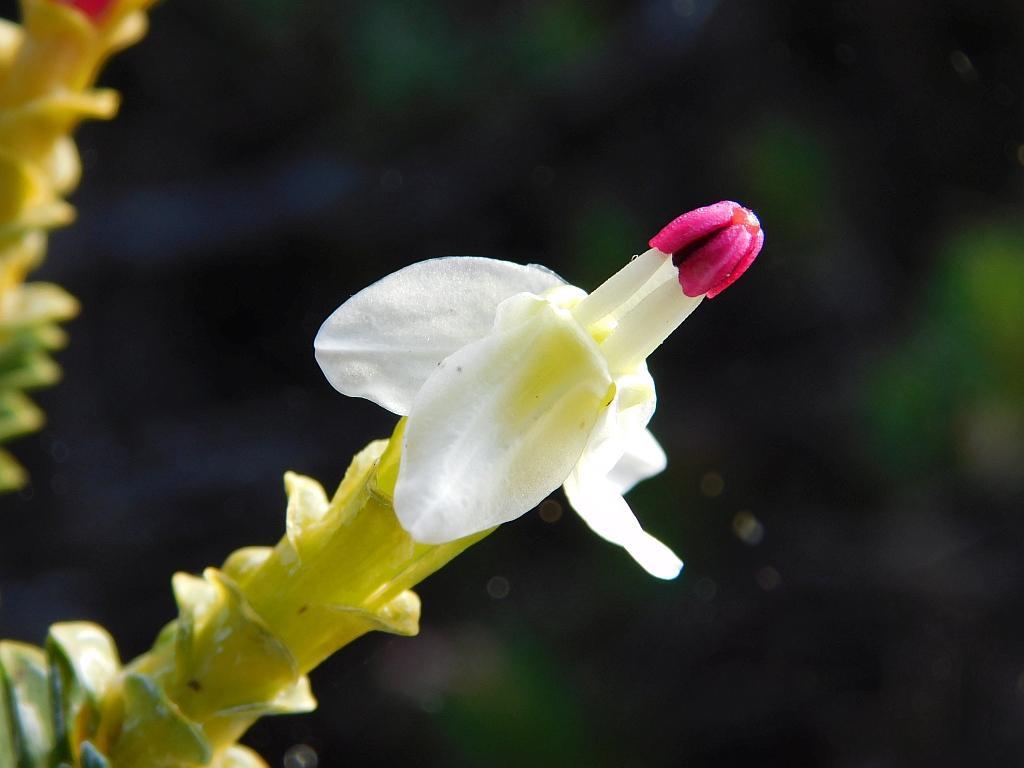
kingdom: Plantae
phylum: Tracheophyta
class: Magnoliopsida
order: Myrtales
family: Penaeaceae
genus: Saltera
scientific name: Saltera sarcocolla
